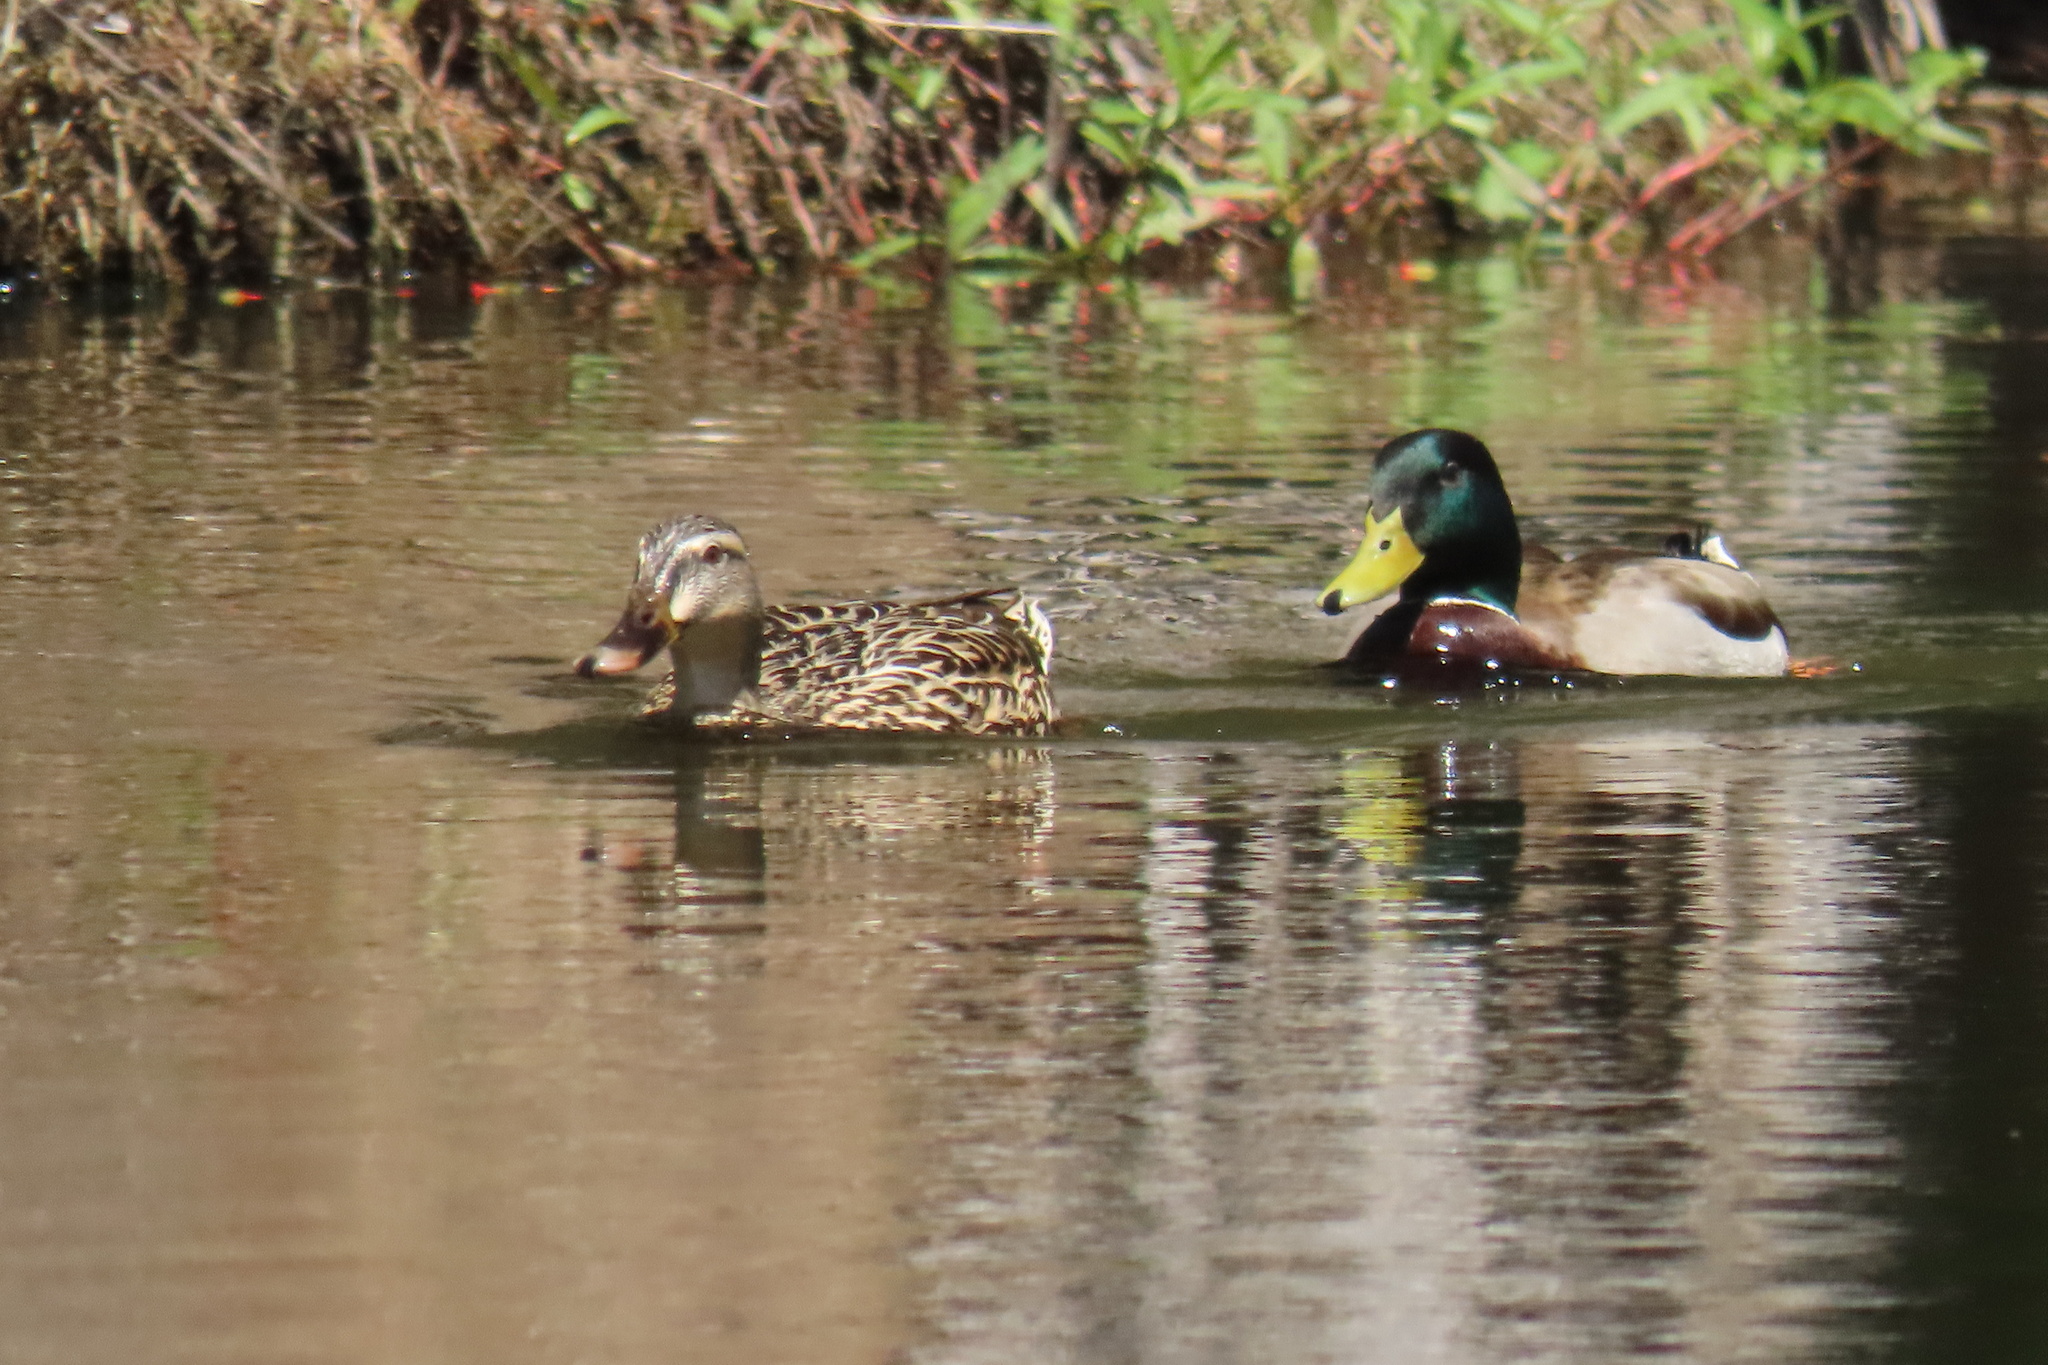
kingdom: Animalia
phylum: Chordata
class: Aves
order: Anseriformes
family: Anatidae
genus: Anas
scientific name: Anas platyrhynchos
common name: Mallard
